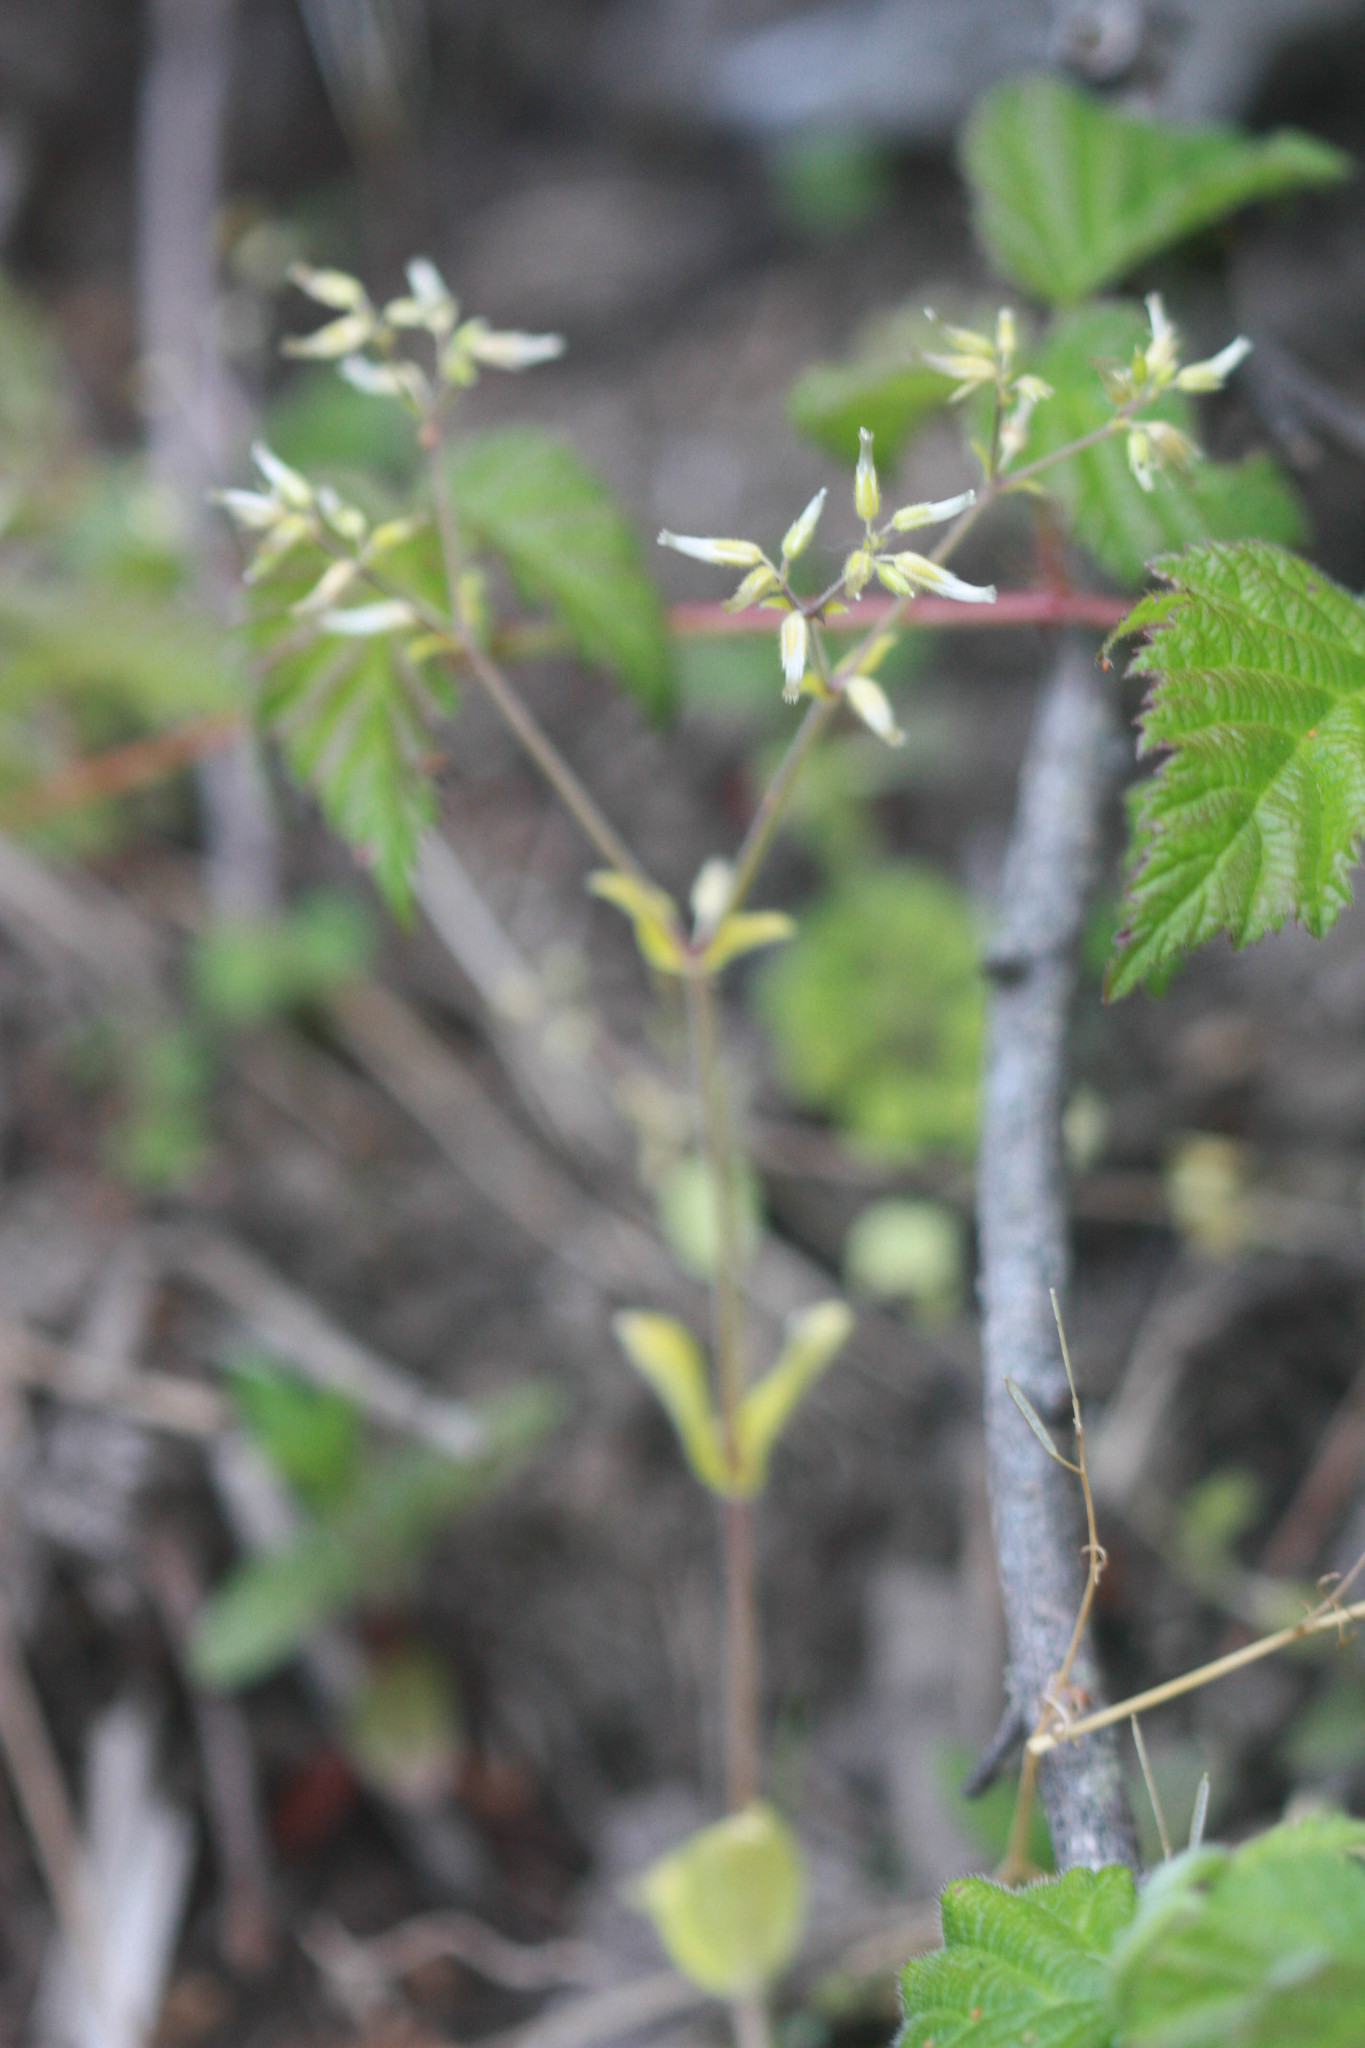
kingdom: Plantae
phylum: Tracheophyta
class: Magnoliopsida
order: Caryophyllales
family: Caryophyllaceae
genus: Cerastium
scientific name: Cerastium glomeratum
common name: Sticky chickweed
